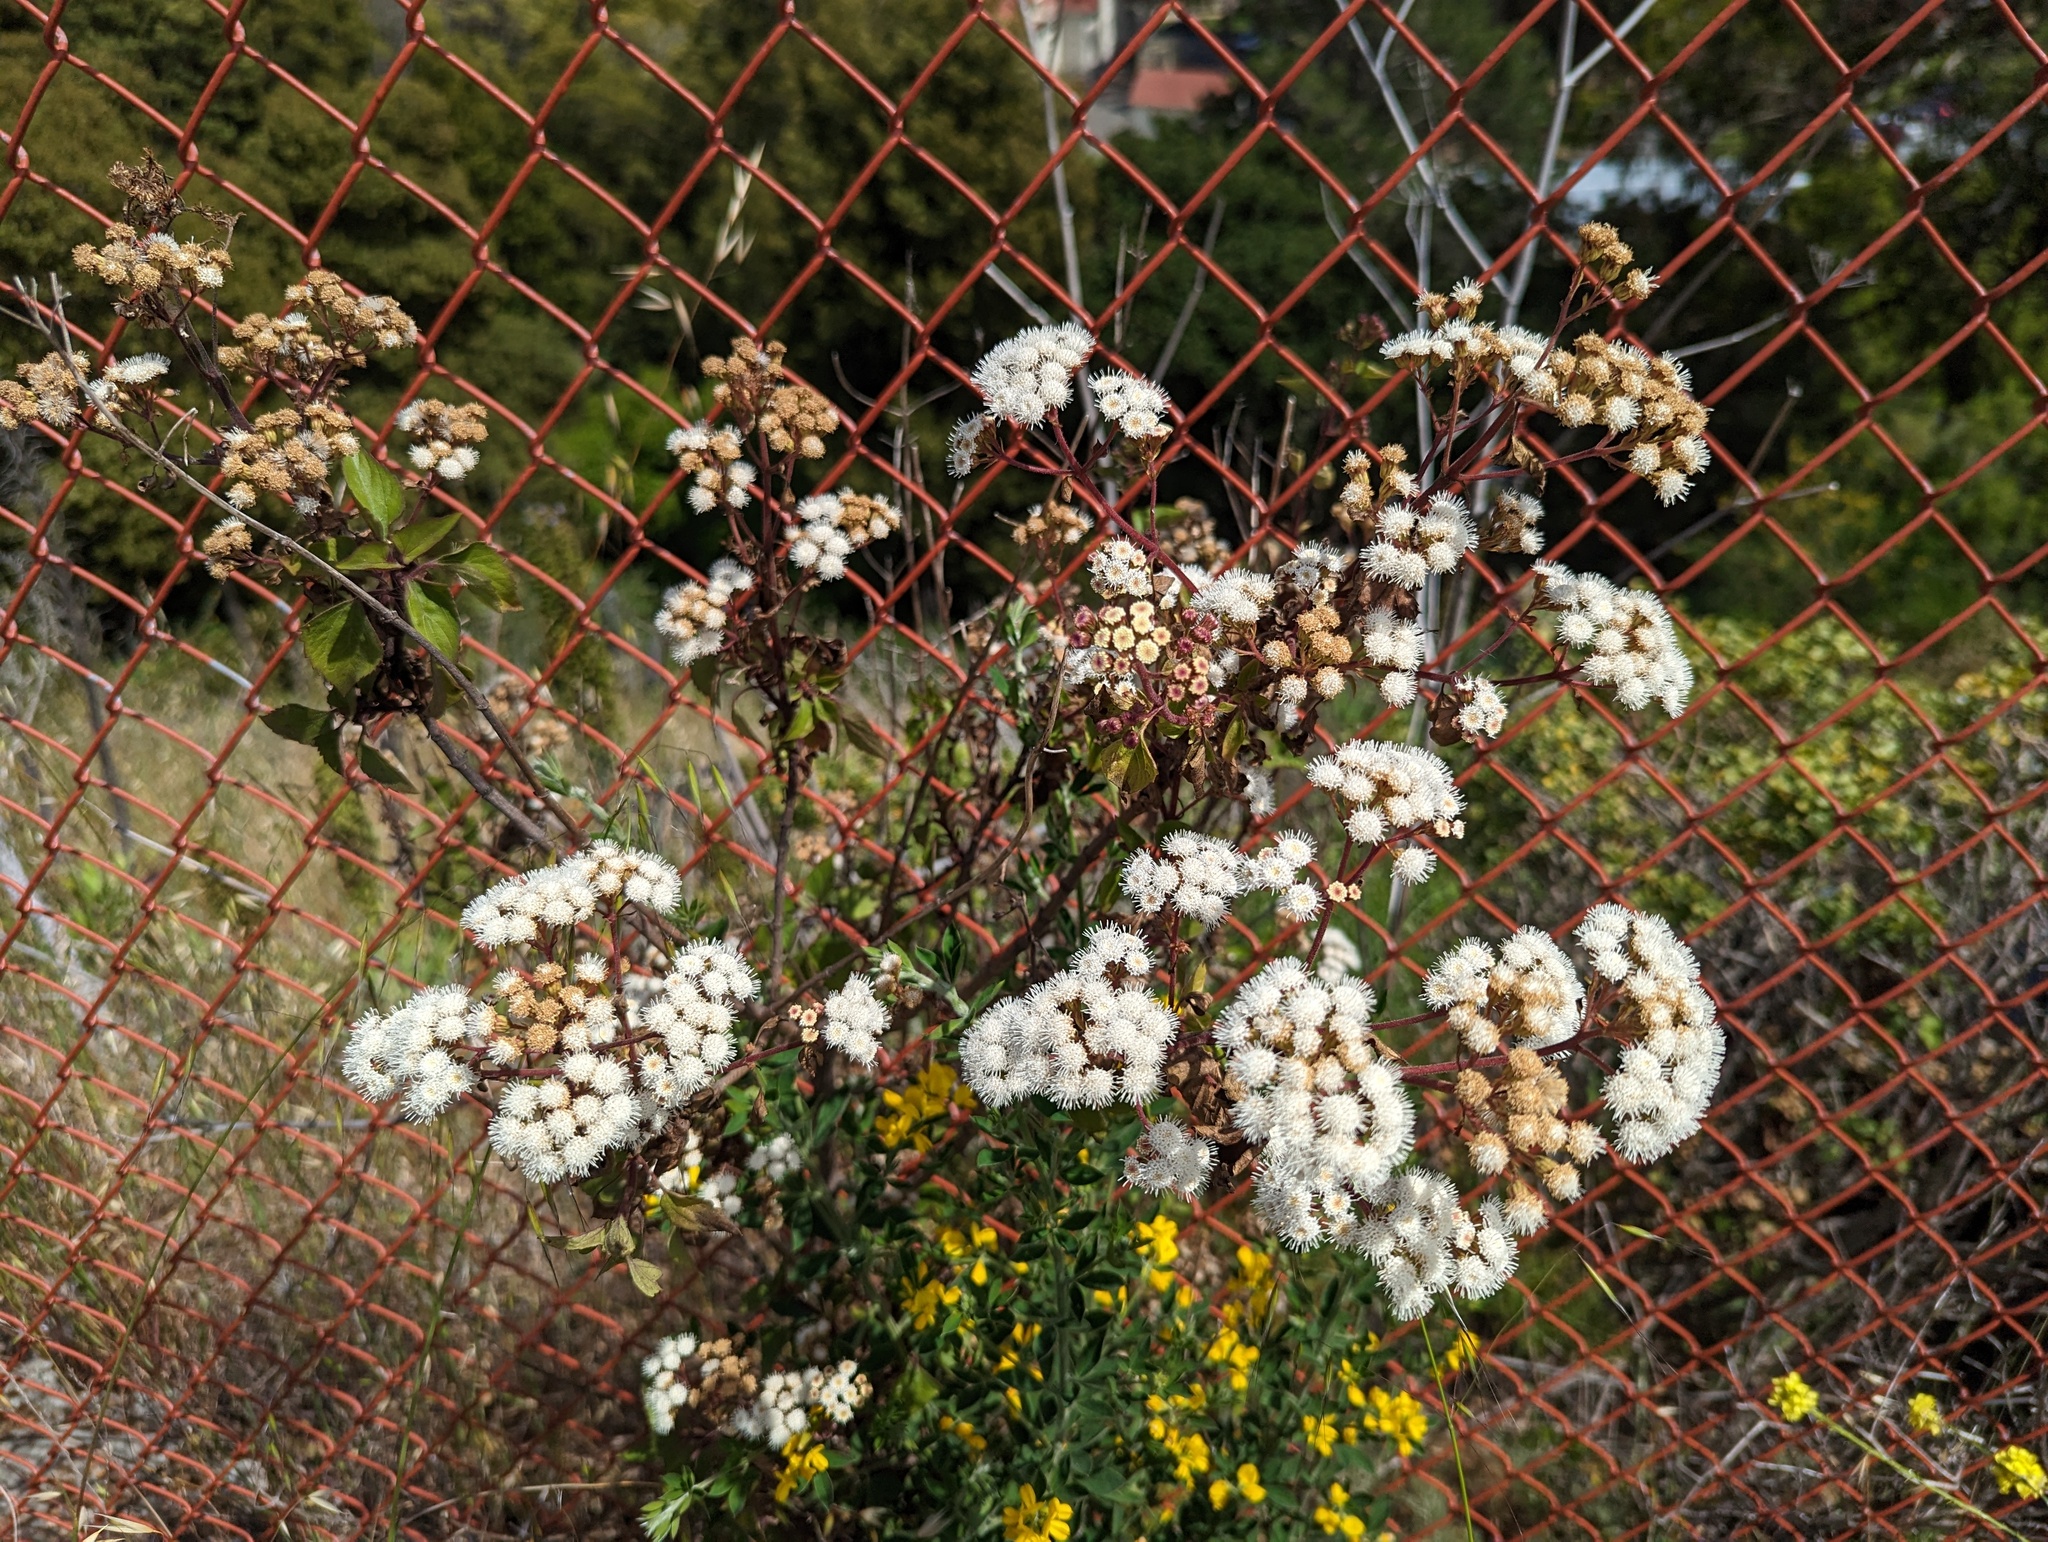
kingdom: Plantae
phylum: Tracheophyta
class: Magnoliopsida
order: Asterales
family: Asteraceae
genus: Ageratina
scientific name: Ageratina adenophora
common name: Sticky snakeroot
